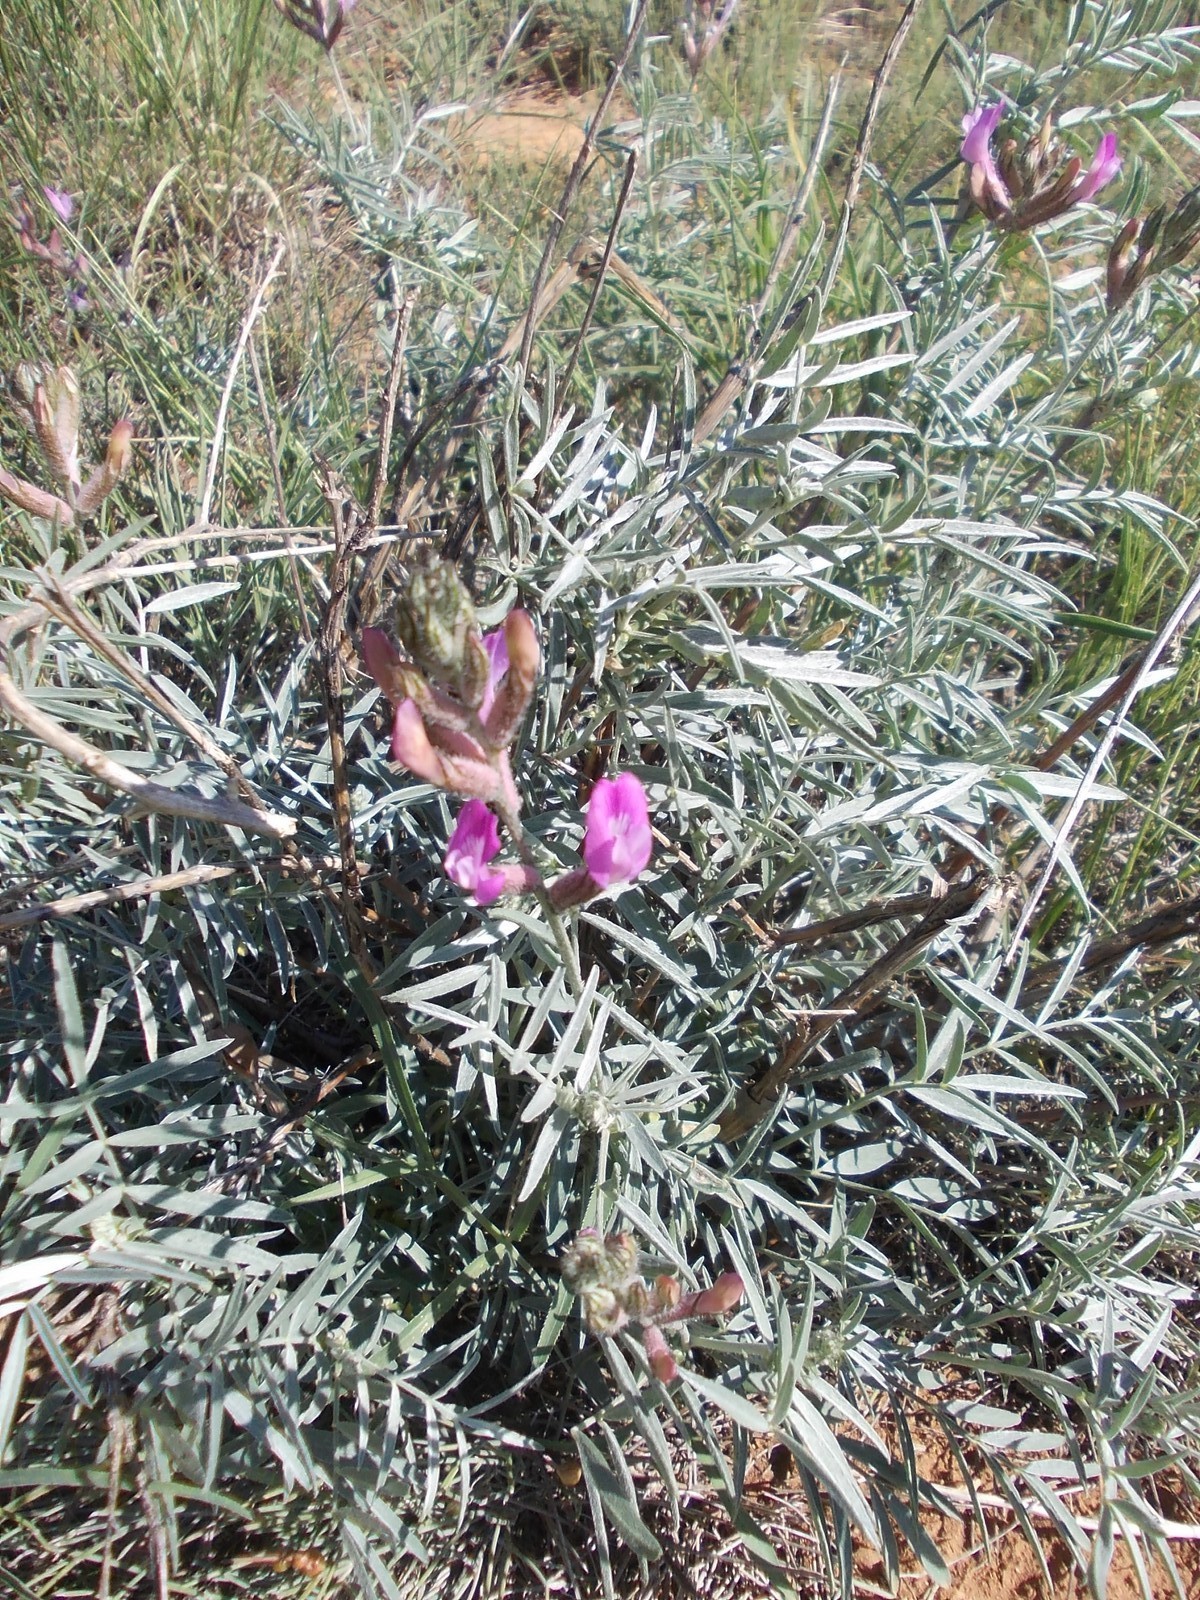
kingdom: Plantae
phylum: Tracheophyta
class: Magnoliopsida
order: Fabales
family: Fabaceae
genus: Astragalus
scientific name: Astragalus brachylobus
